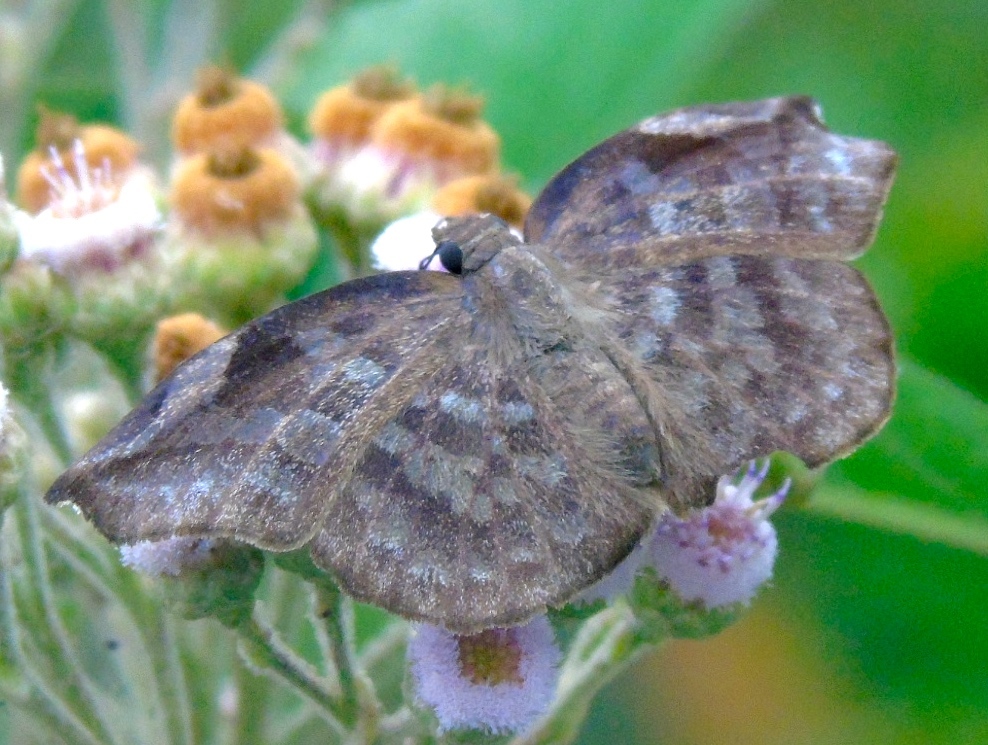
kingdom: Animalia
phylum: Arthropoda
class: Insecta
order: Lepidoptera
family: Hesperiidae
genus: Achlyodes
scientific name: Achlyodes thraso
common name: Sickle-winged skipper
